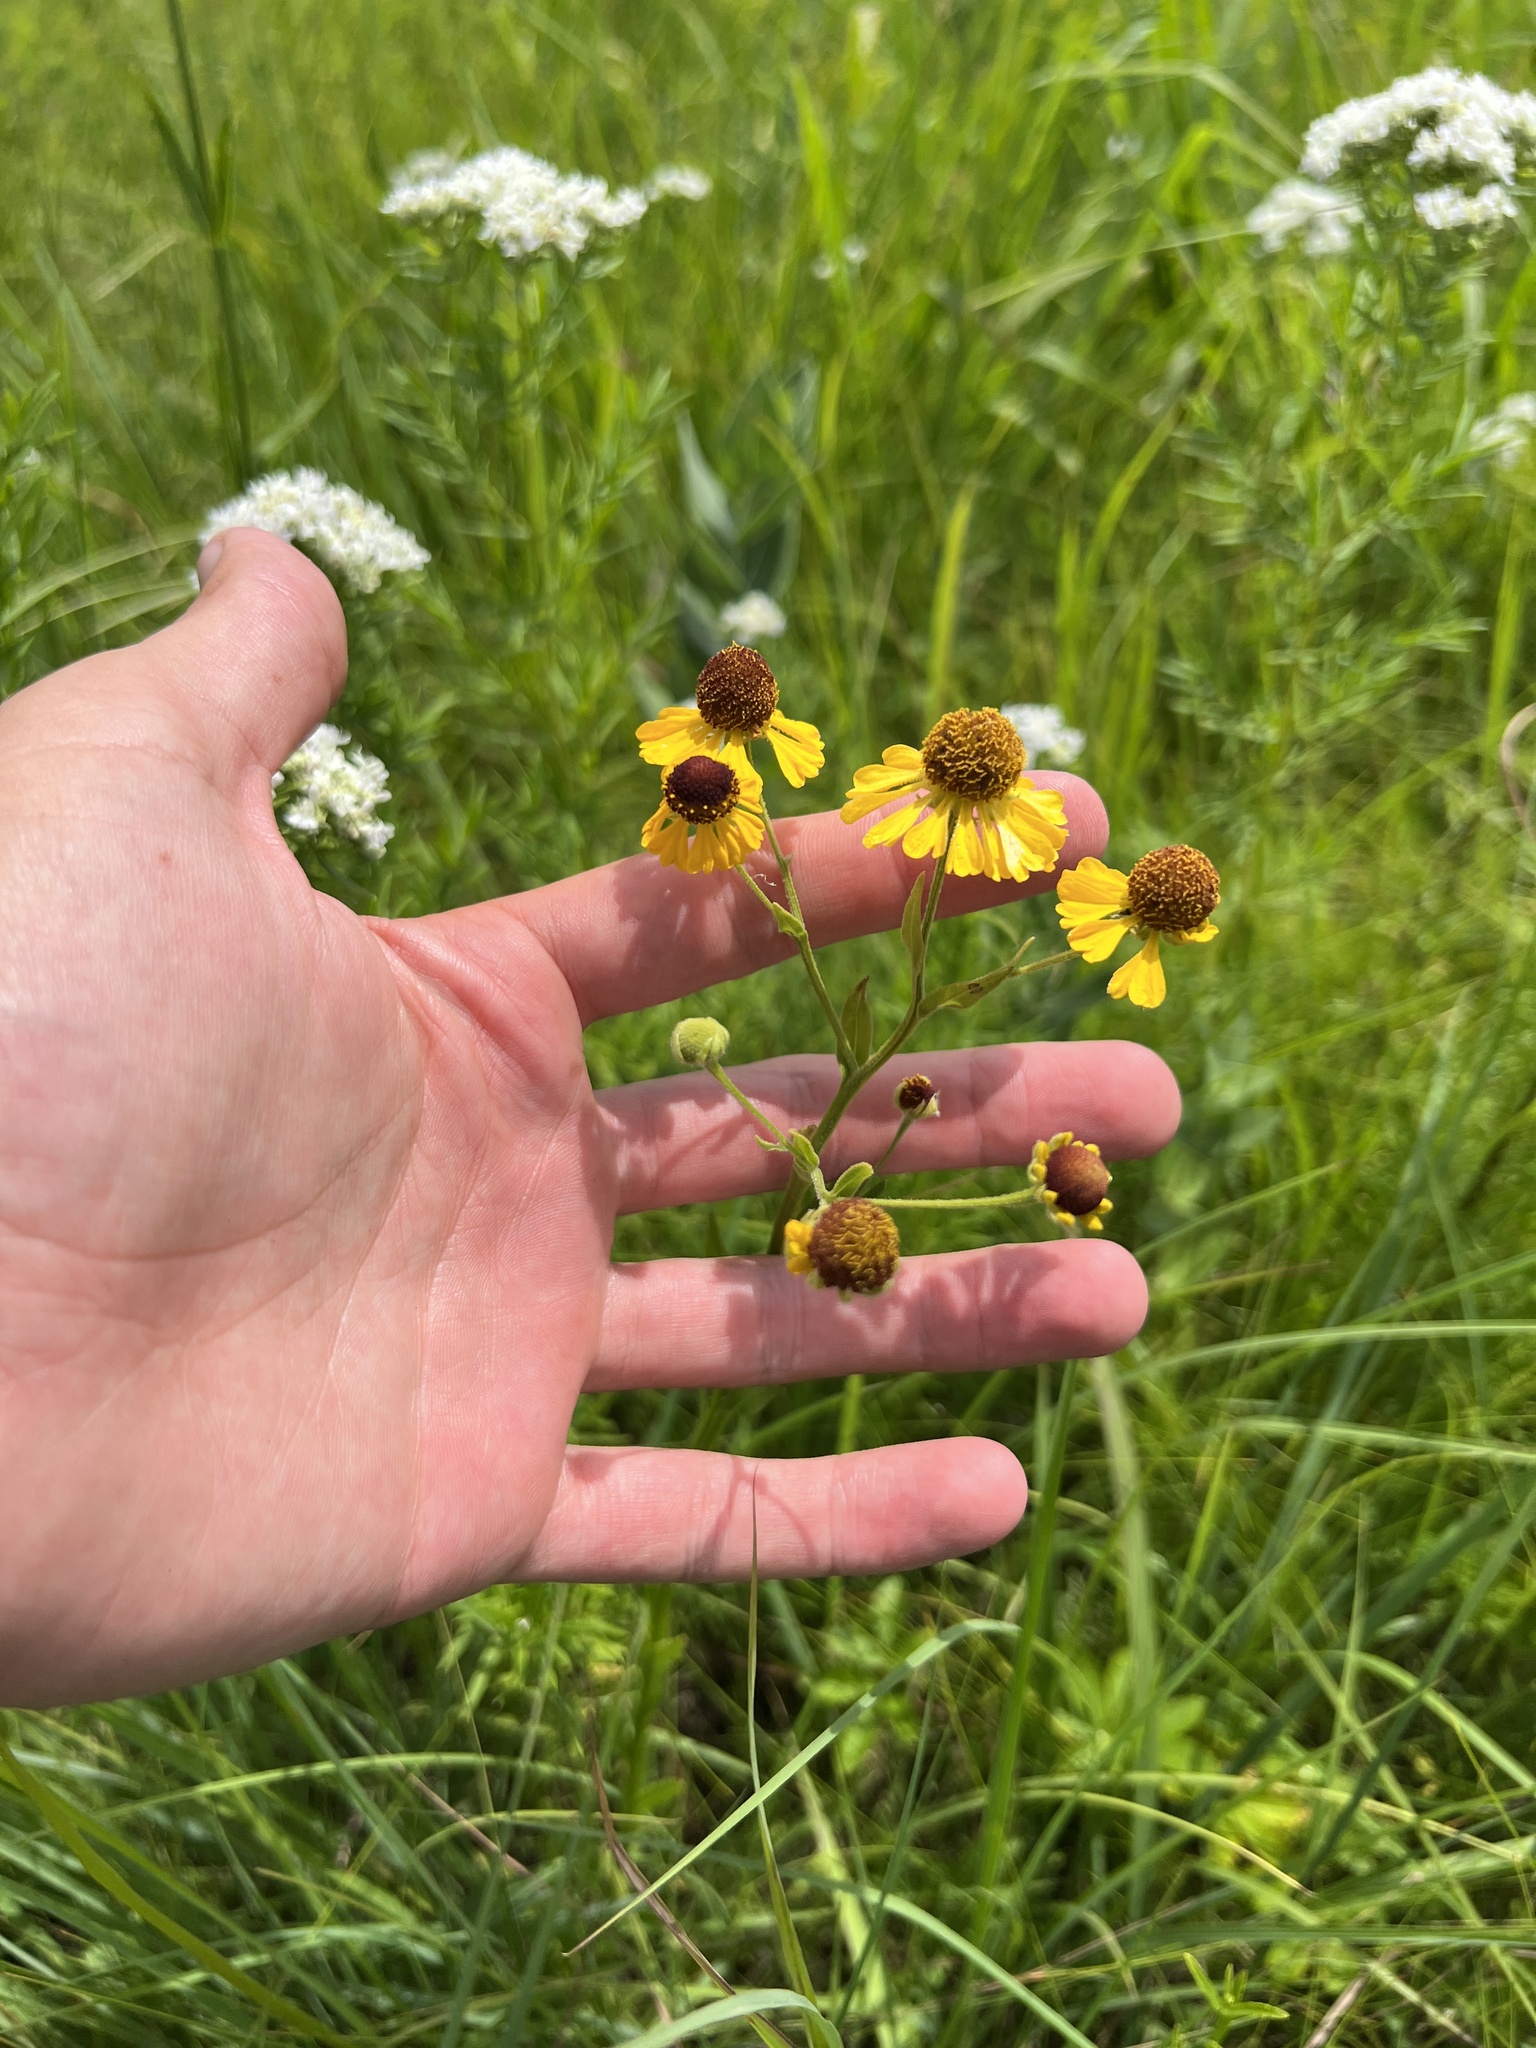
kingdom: Plantae
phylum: Tracheophyta
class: Magnoliopsida
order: Asterales
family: Asteraceae
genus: Helenium
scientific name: Helenium flexuosum
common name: Naked-flowered sneezeweed
